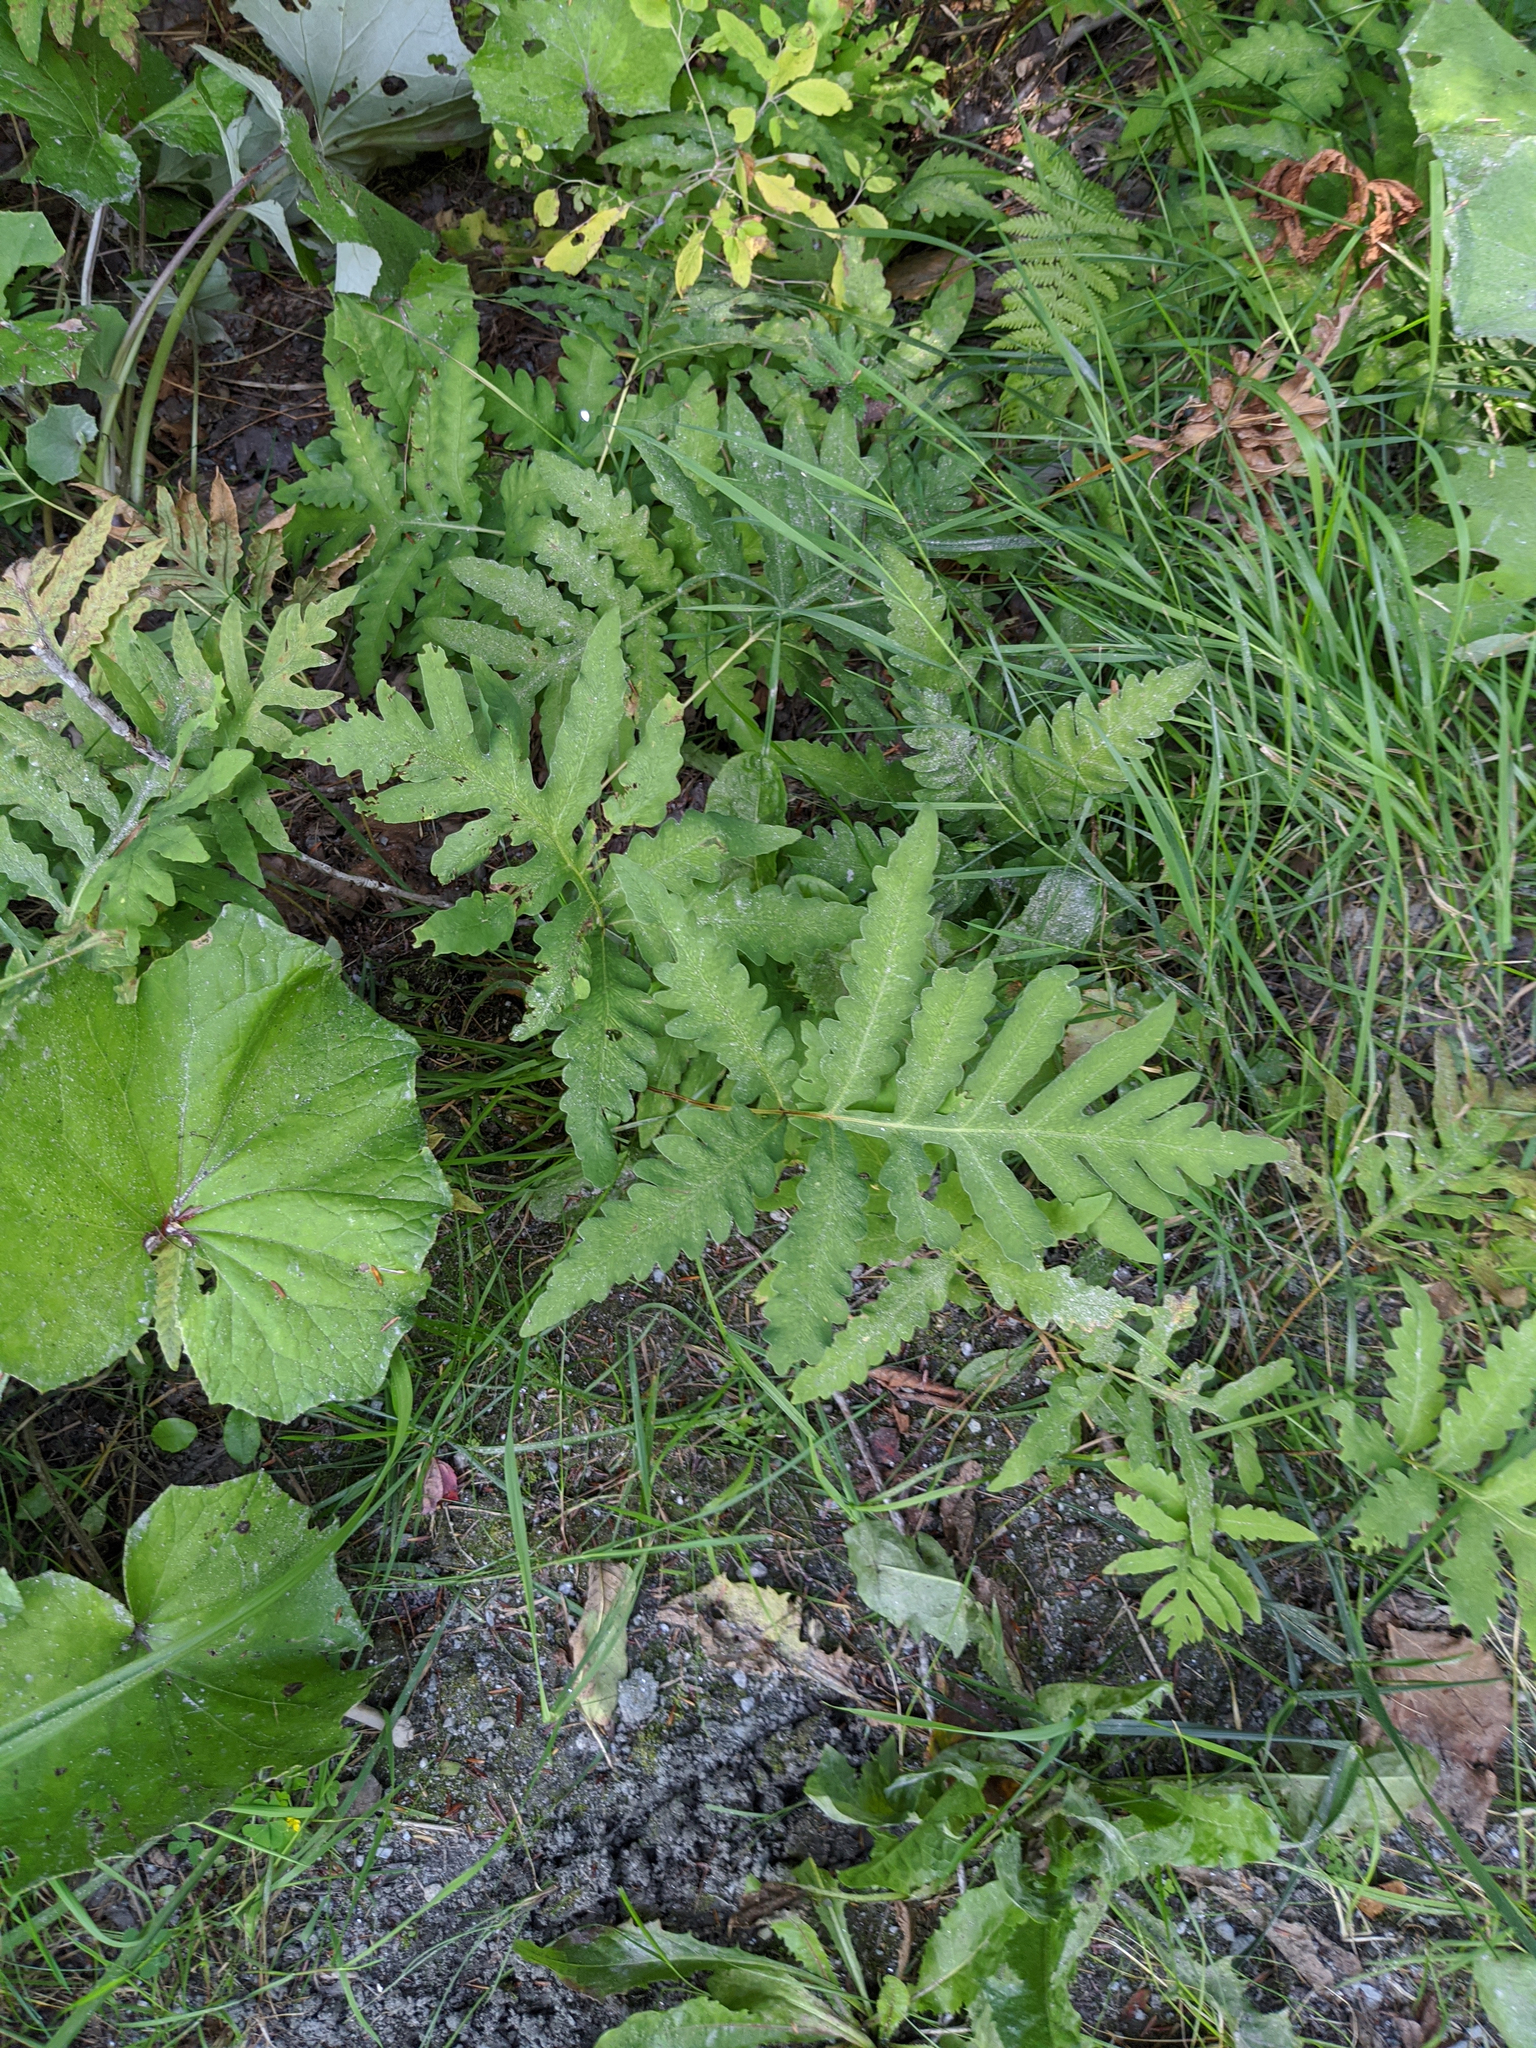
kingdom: Plantae
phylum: Tracheophyta
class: Polypodiopsida
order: Polypodiales
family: Onocleaceae
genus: Onoclea
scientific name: Onoclea sensibilis
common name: Sensitive fern
